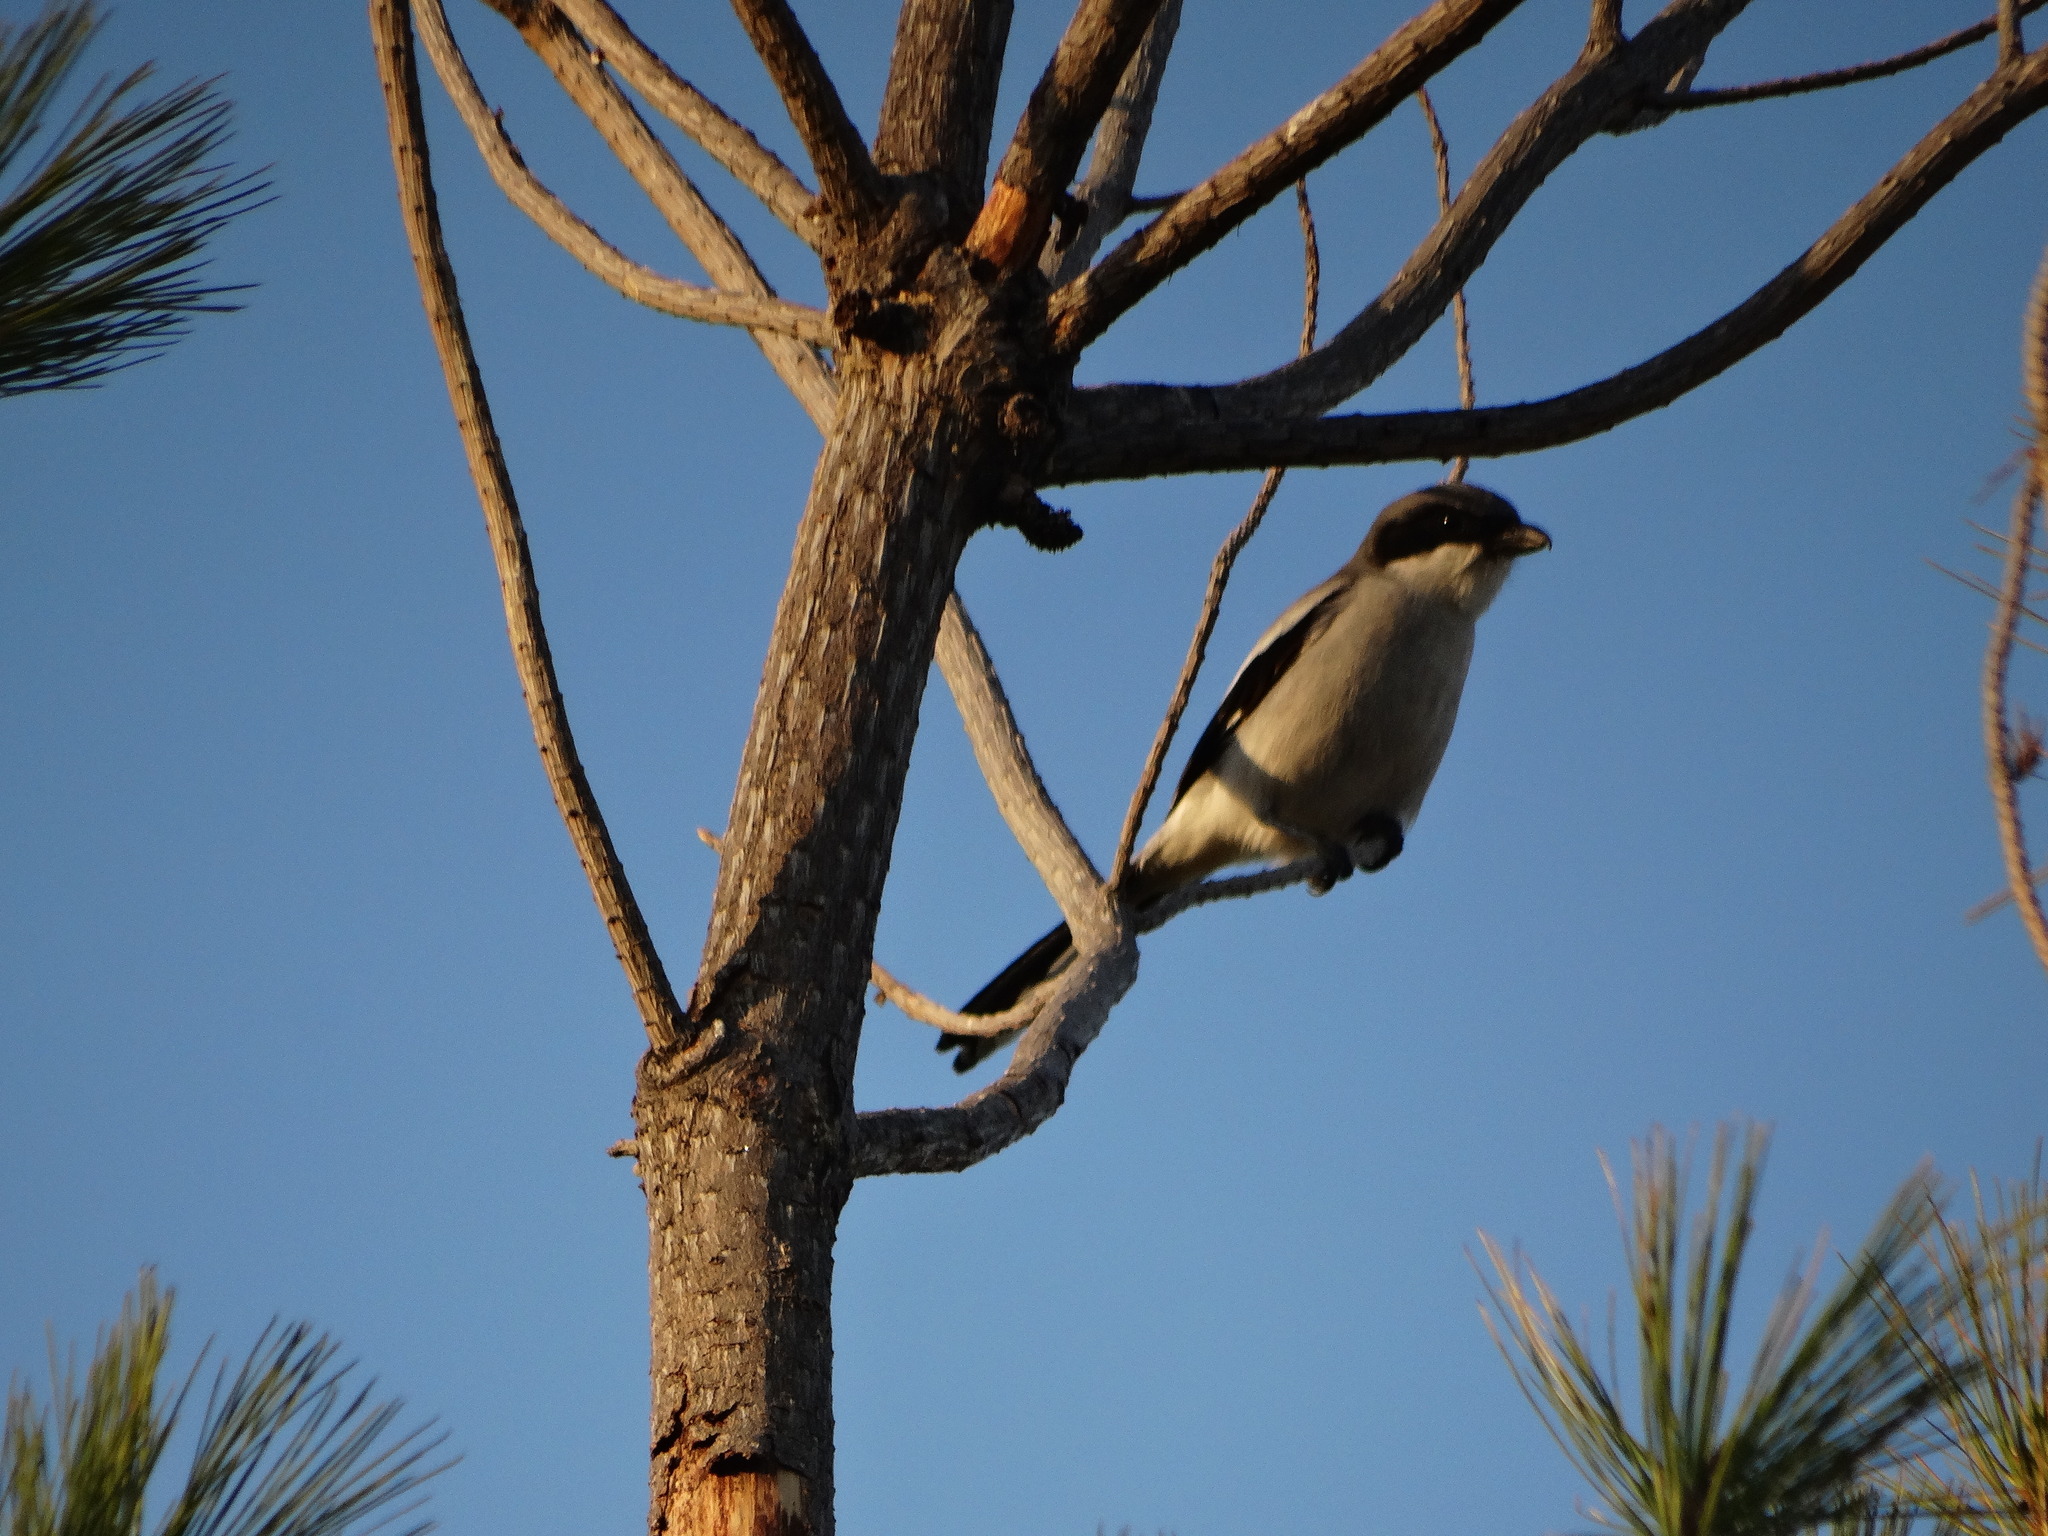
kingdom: Animalia
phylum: Chordata
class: Aves
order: Passeriformes
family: Laniidae
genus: Lanius
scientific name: Lanius ludovicianus
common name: Loggerhead shrike
